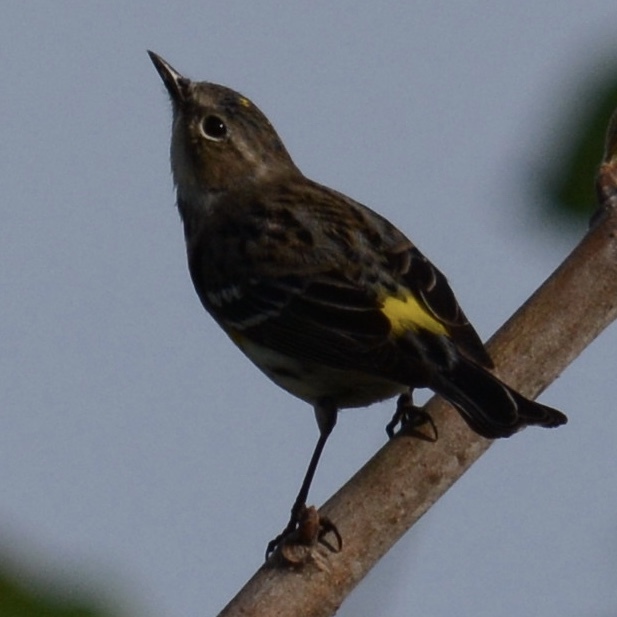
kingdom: Animalia
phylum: Chordata
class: Aves
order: Passeriformes
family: Parulidae
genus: Setophaga
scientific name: Setophaga coronata
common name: Myrtle warbler
